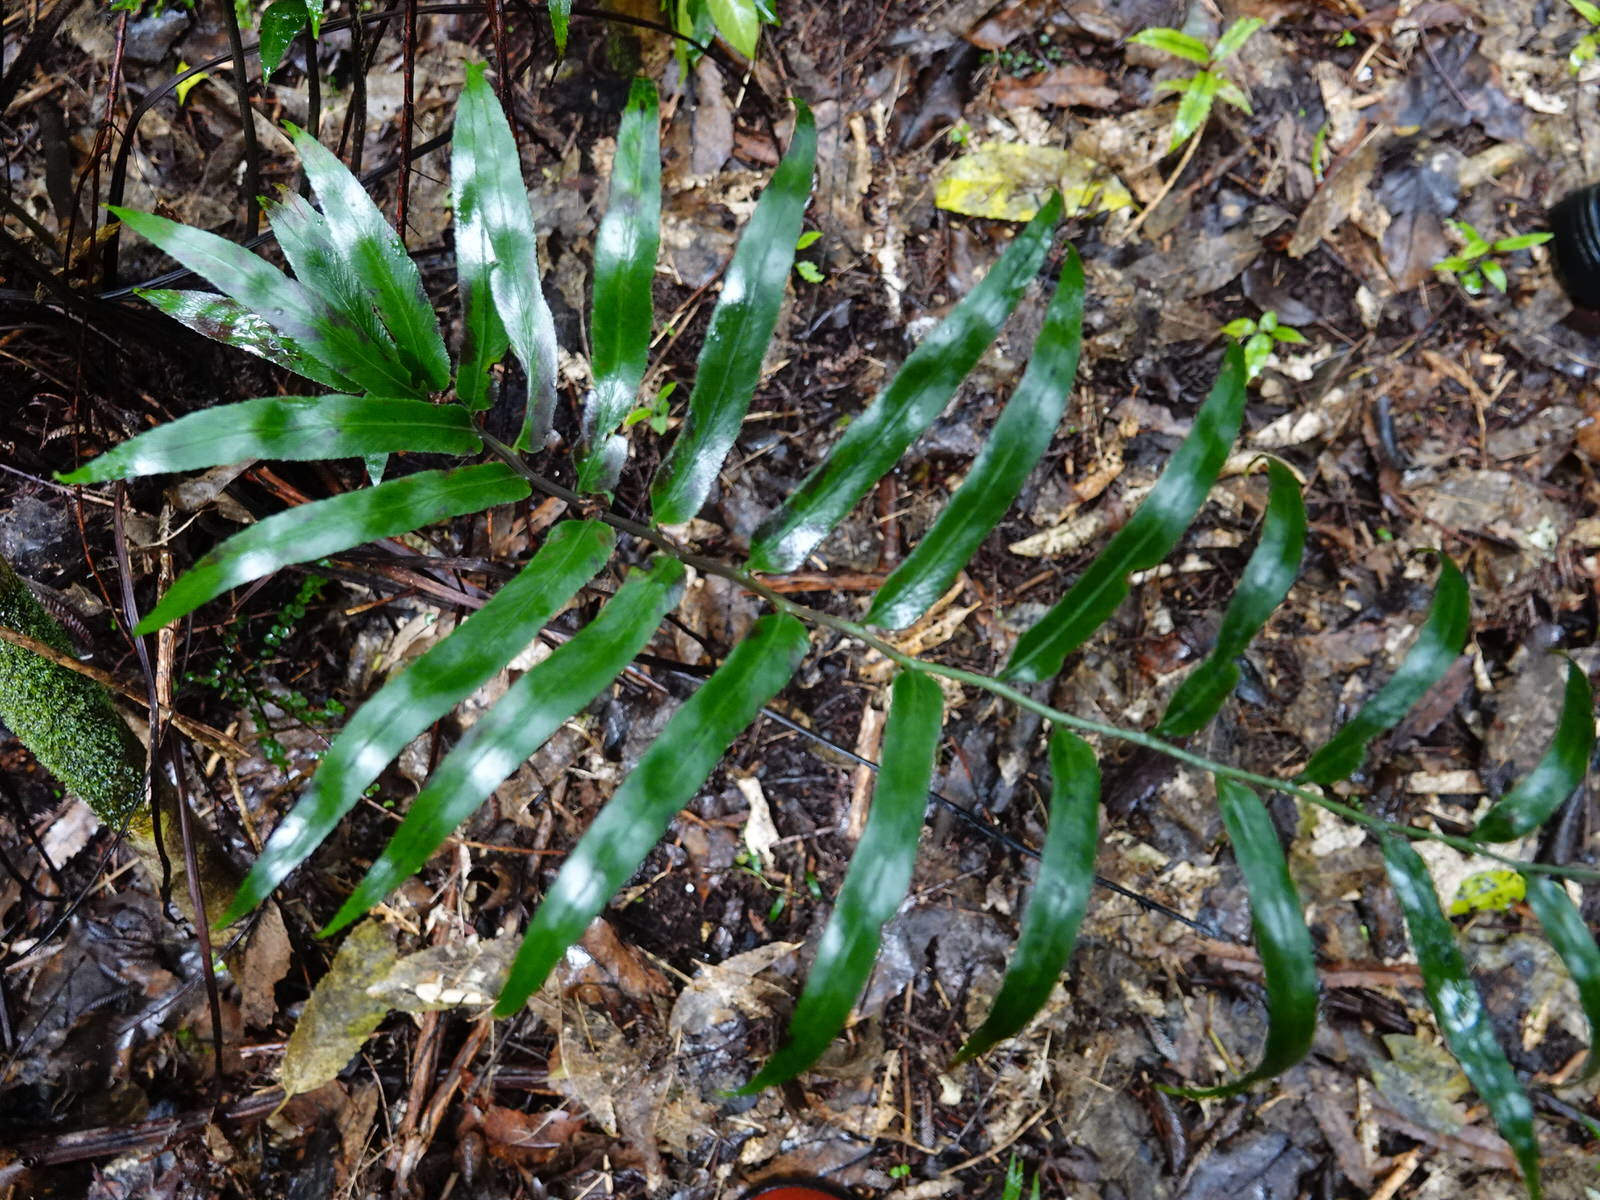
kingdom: Plantae
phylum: Tracheophyta
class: Polypodiopsida
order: Polypodiales
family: Aspleniaceae
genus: Asplenium
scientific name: Asplenium oblongifolium
